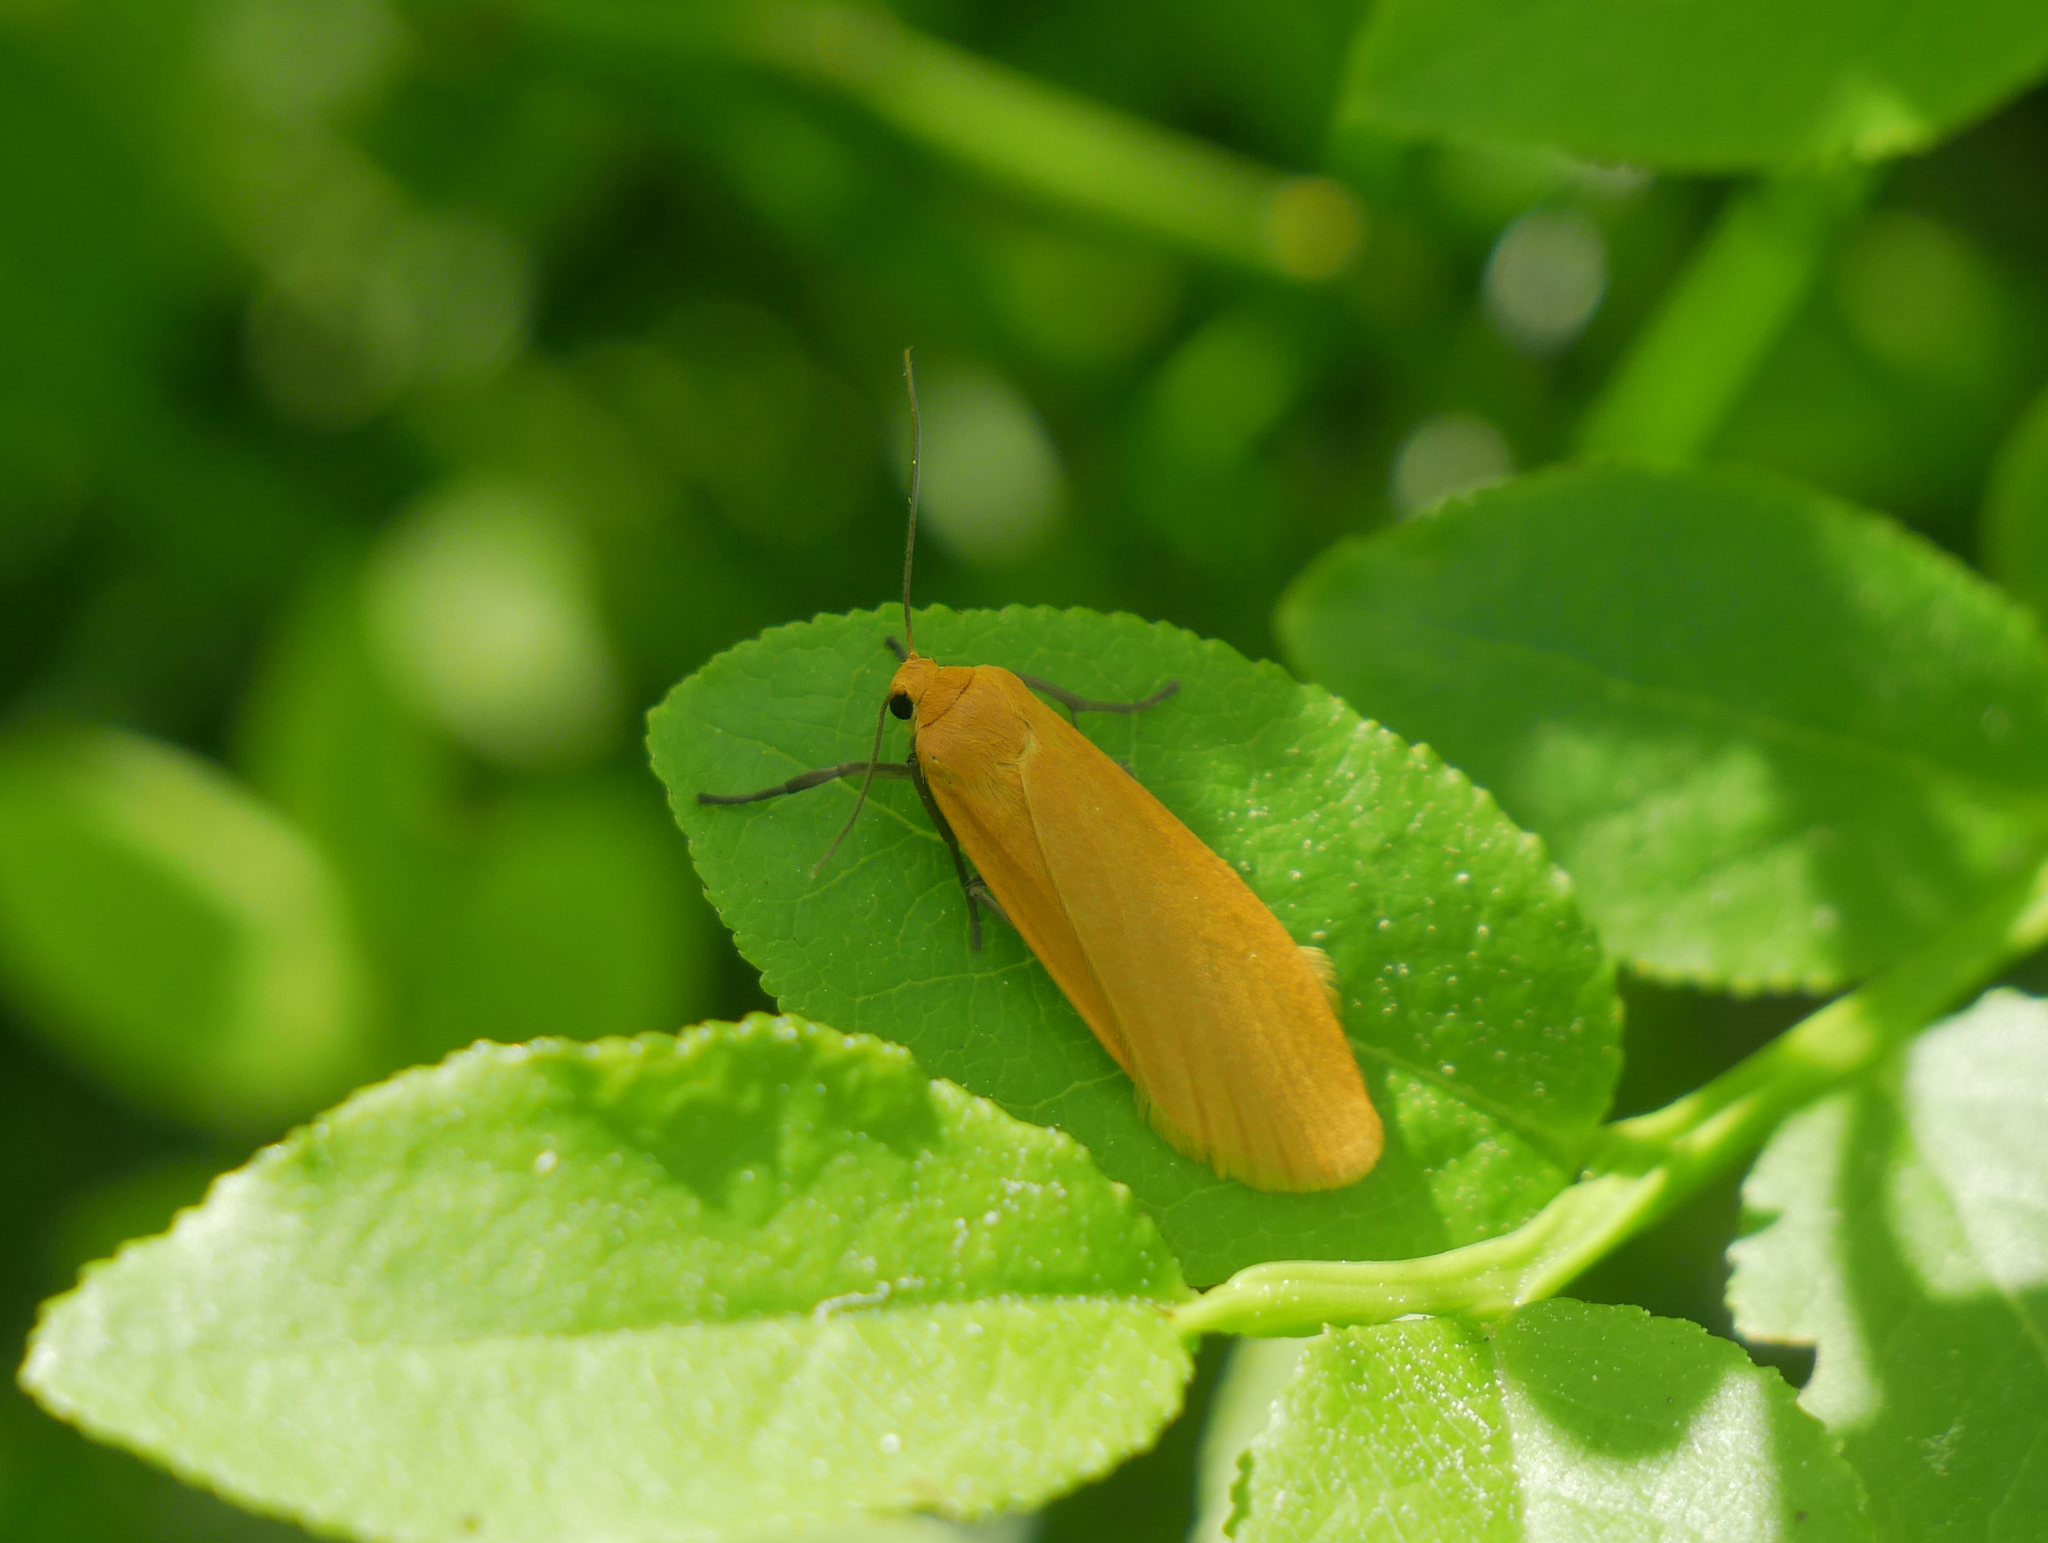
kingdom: Animalia
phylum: Arthropoda
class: Insecta
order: Lepidoptera
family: Erebidae
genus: Wittia
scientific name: Wittia sororcula
